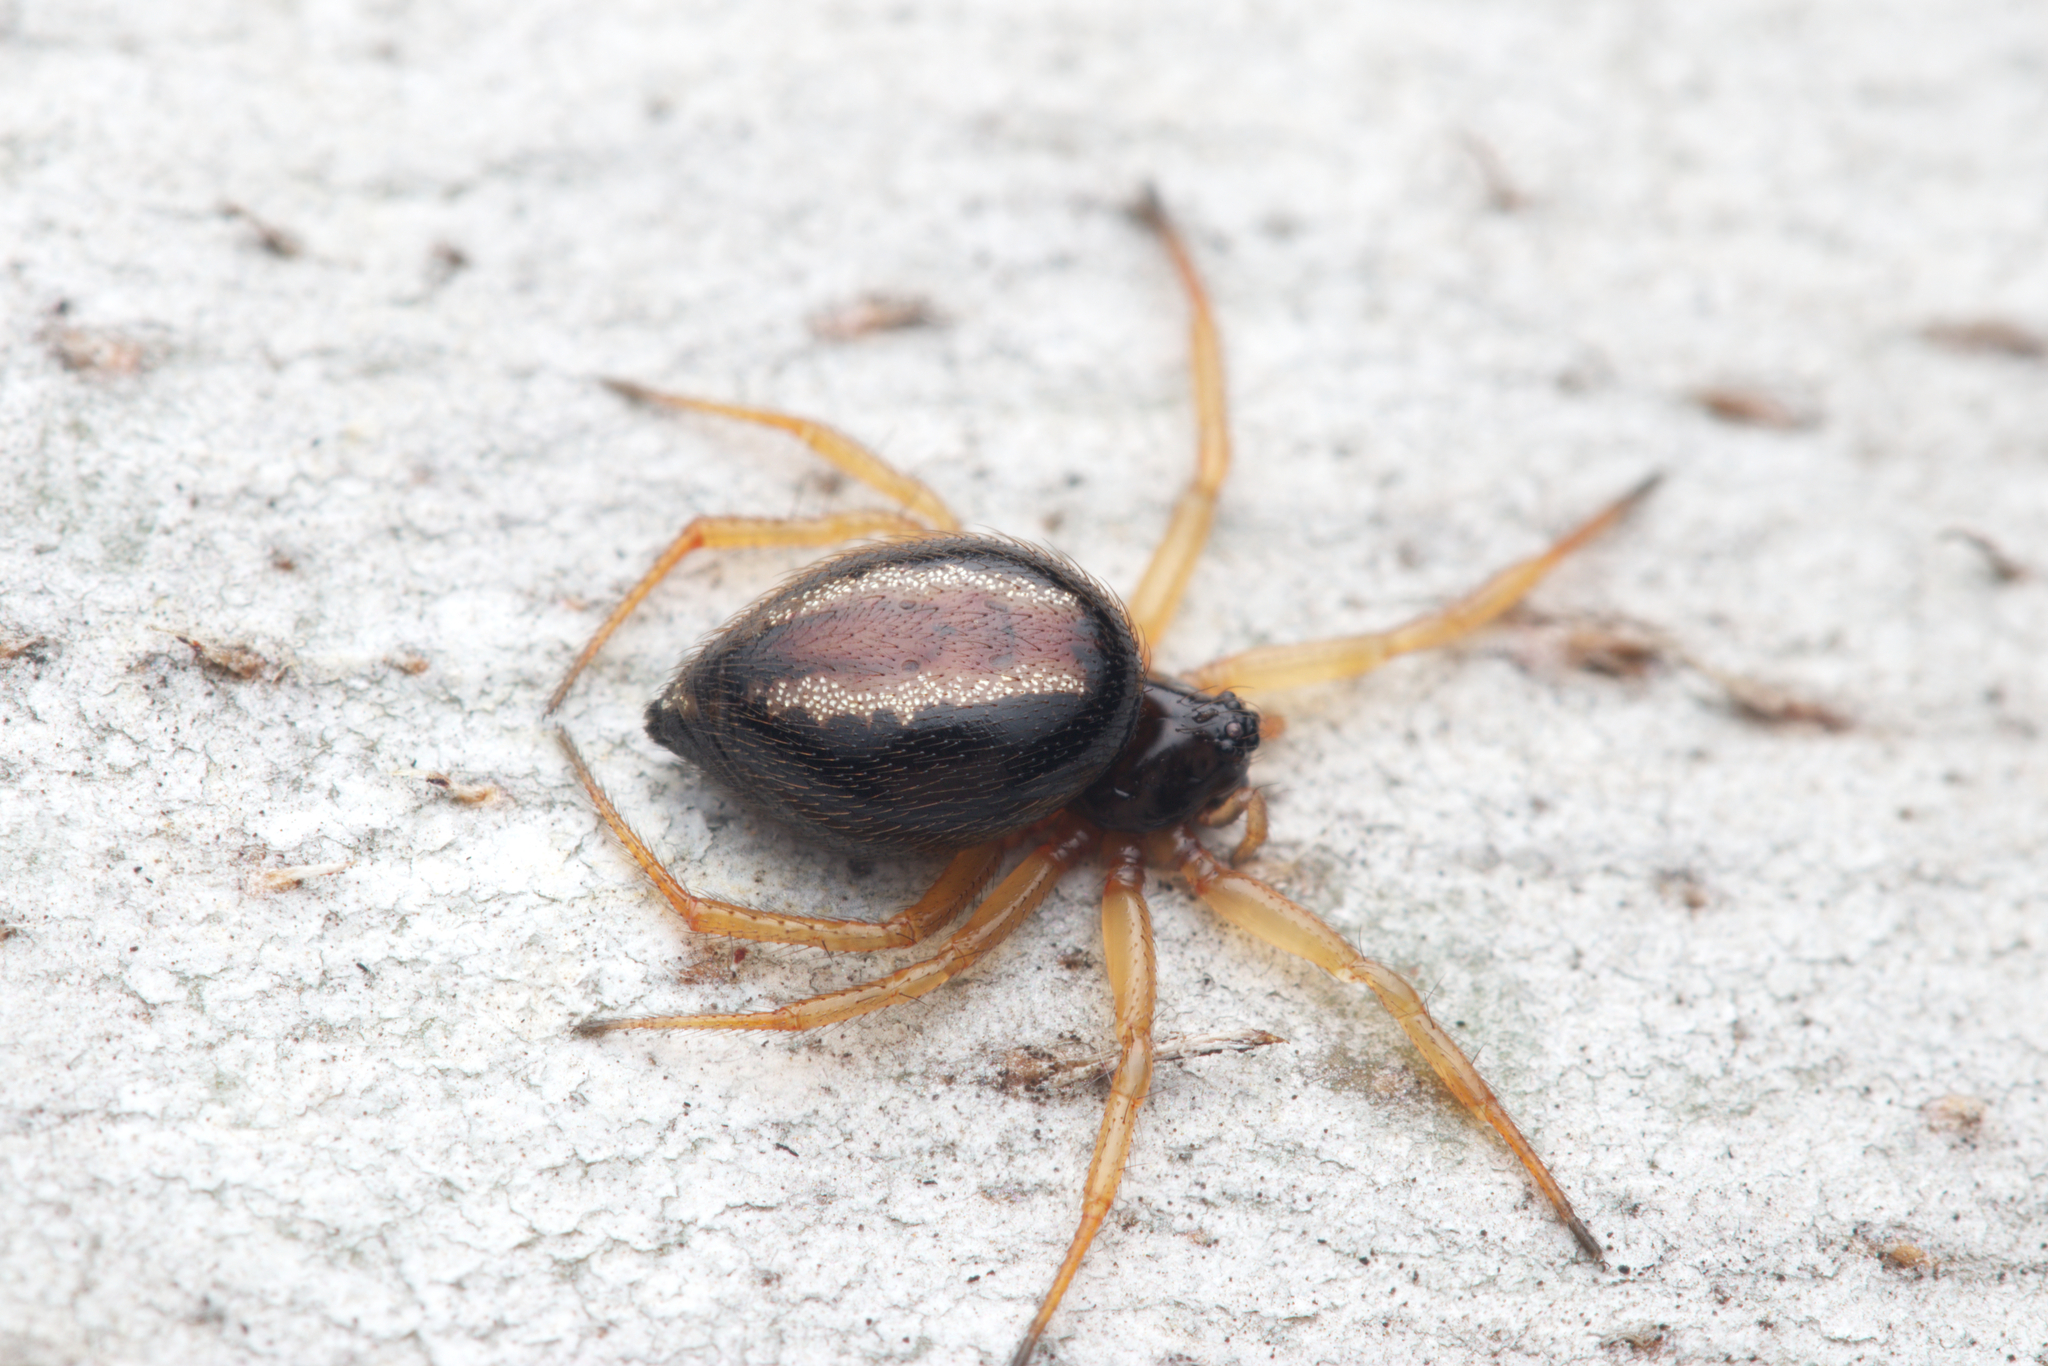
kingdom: Animalia
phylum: Arthropoda
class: Arachnida
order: Araneae
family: Theridiidae
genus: Euryopis
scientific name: Euryopis umbilicata
